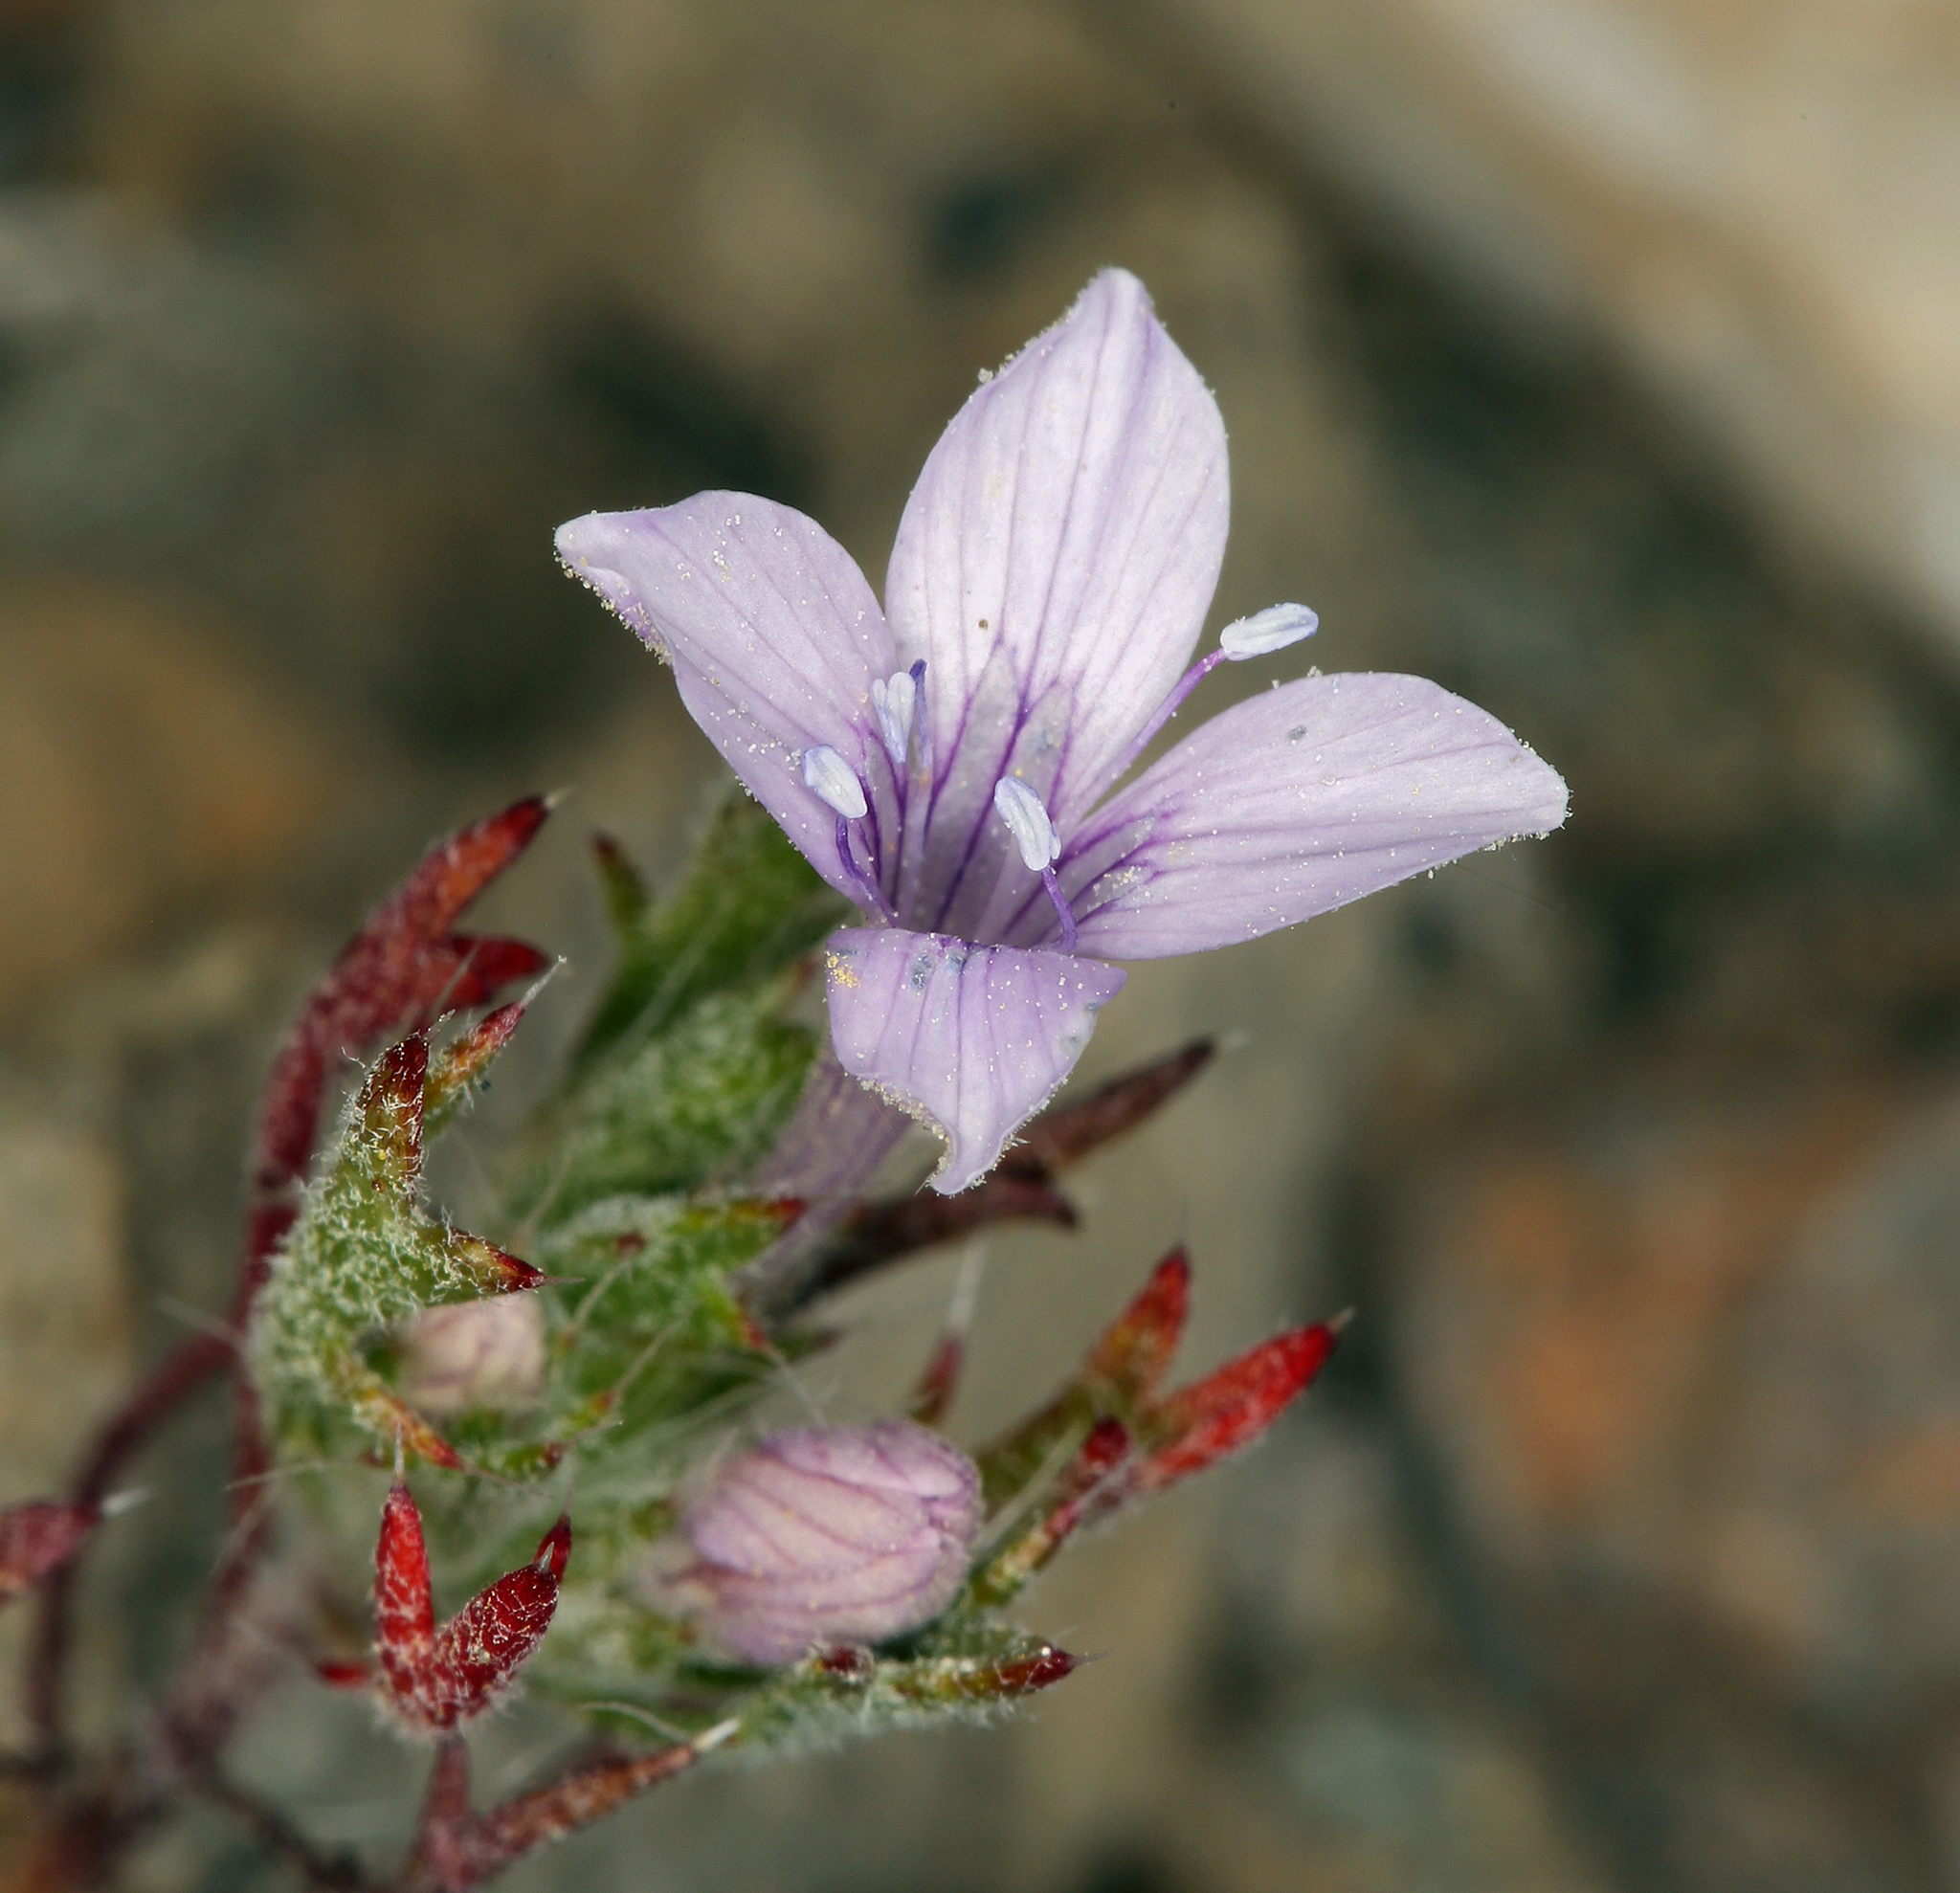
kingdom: Plantae
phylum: Tracheophyta
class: Magnoliopsida
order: Ericales
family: Polemoniaceae
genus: Langloisia
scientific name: Langloisia setosissima
